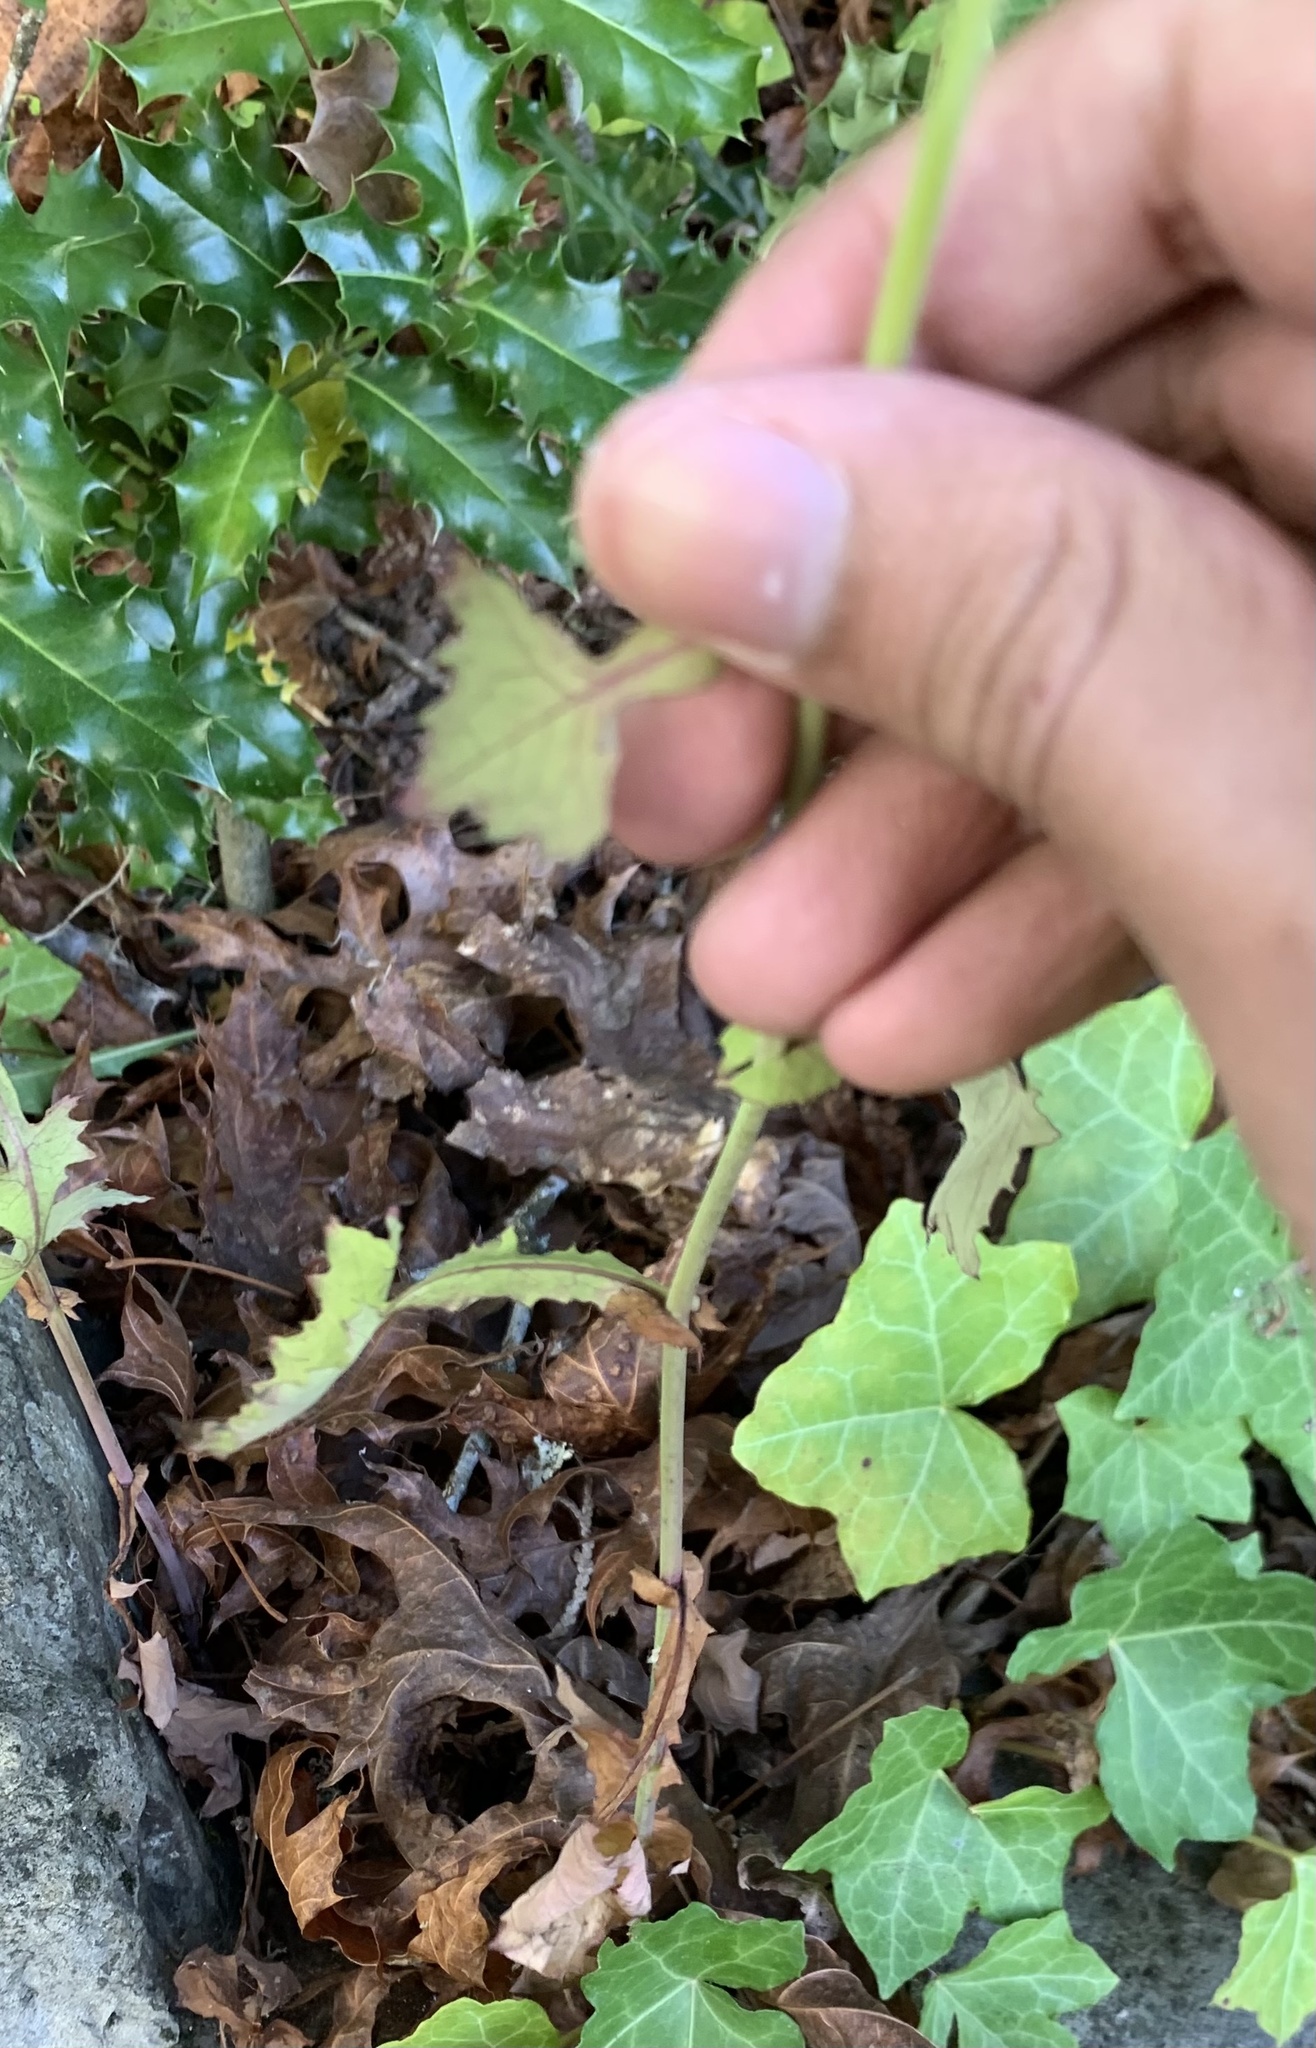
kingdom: Plantae
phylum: Tracheophyta
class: Magnoliopsida
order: Asterales
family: Asteraceae
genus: Mycelis
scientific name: Mycelis muralis
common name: Wall lettuce
